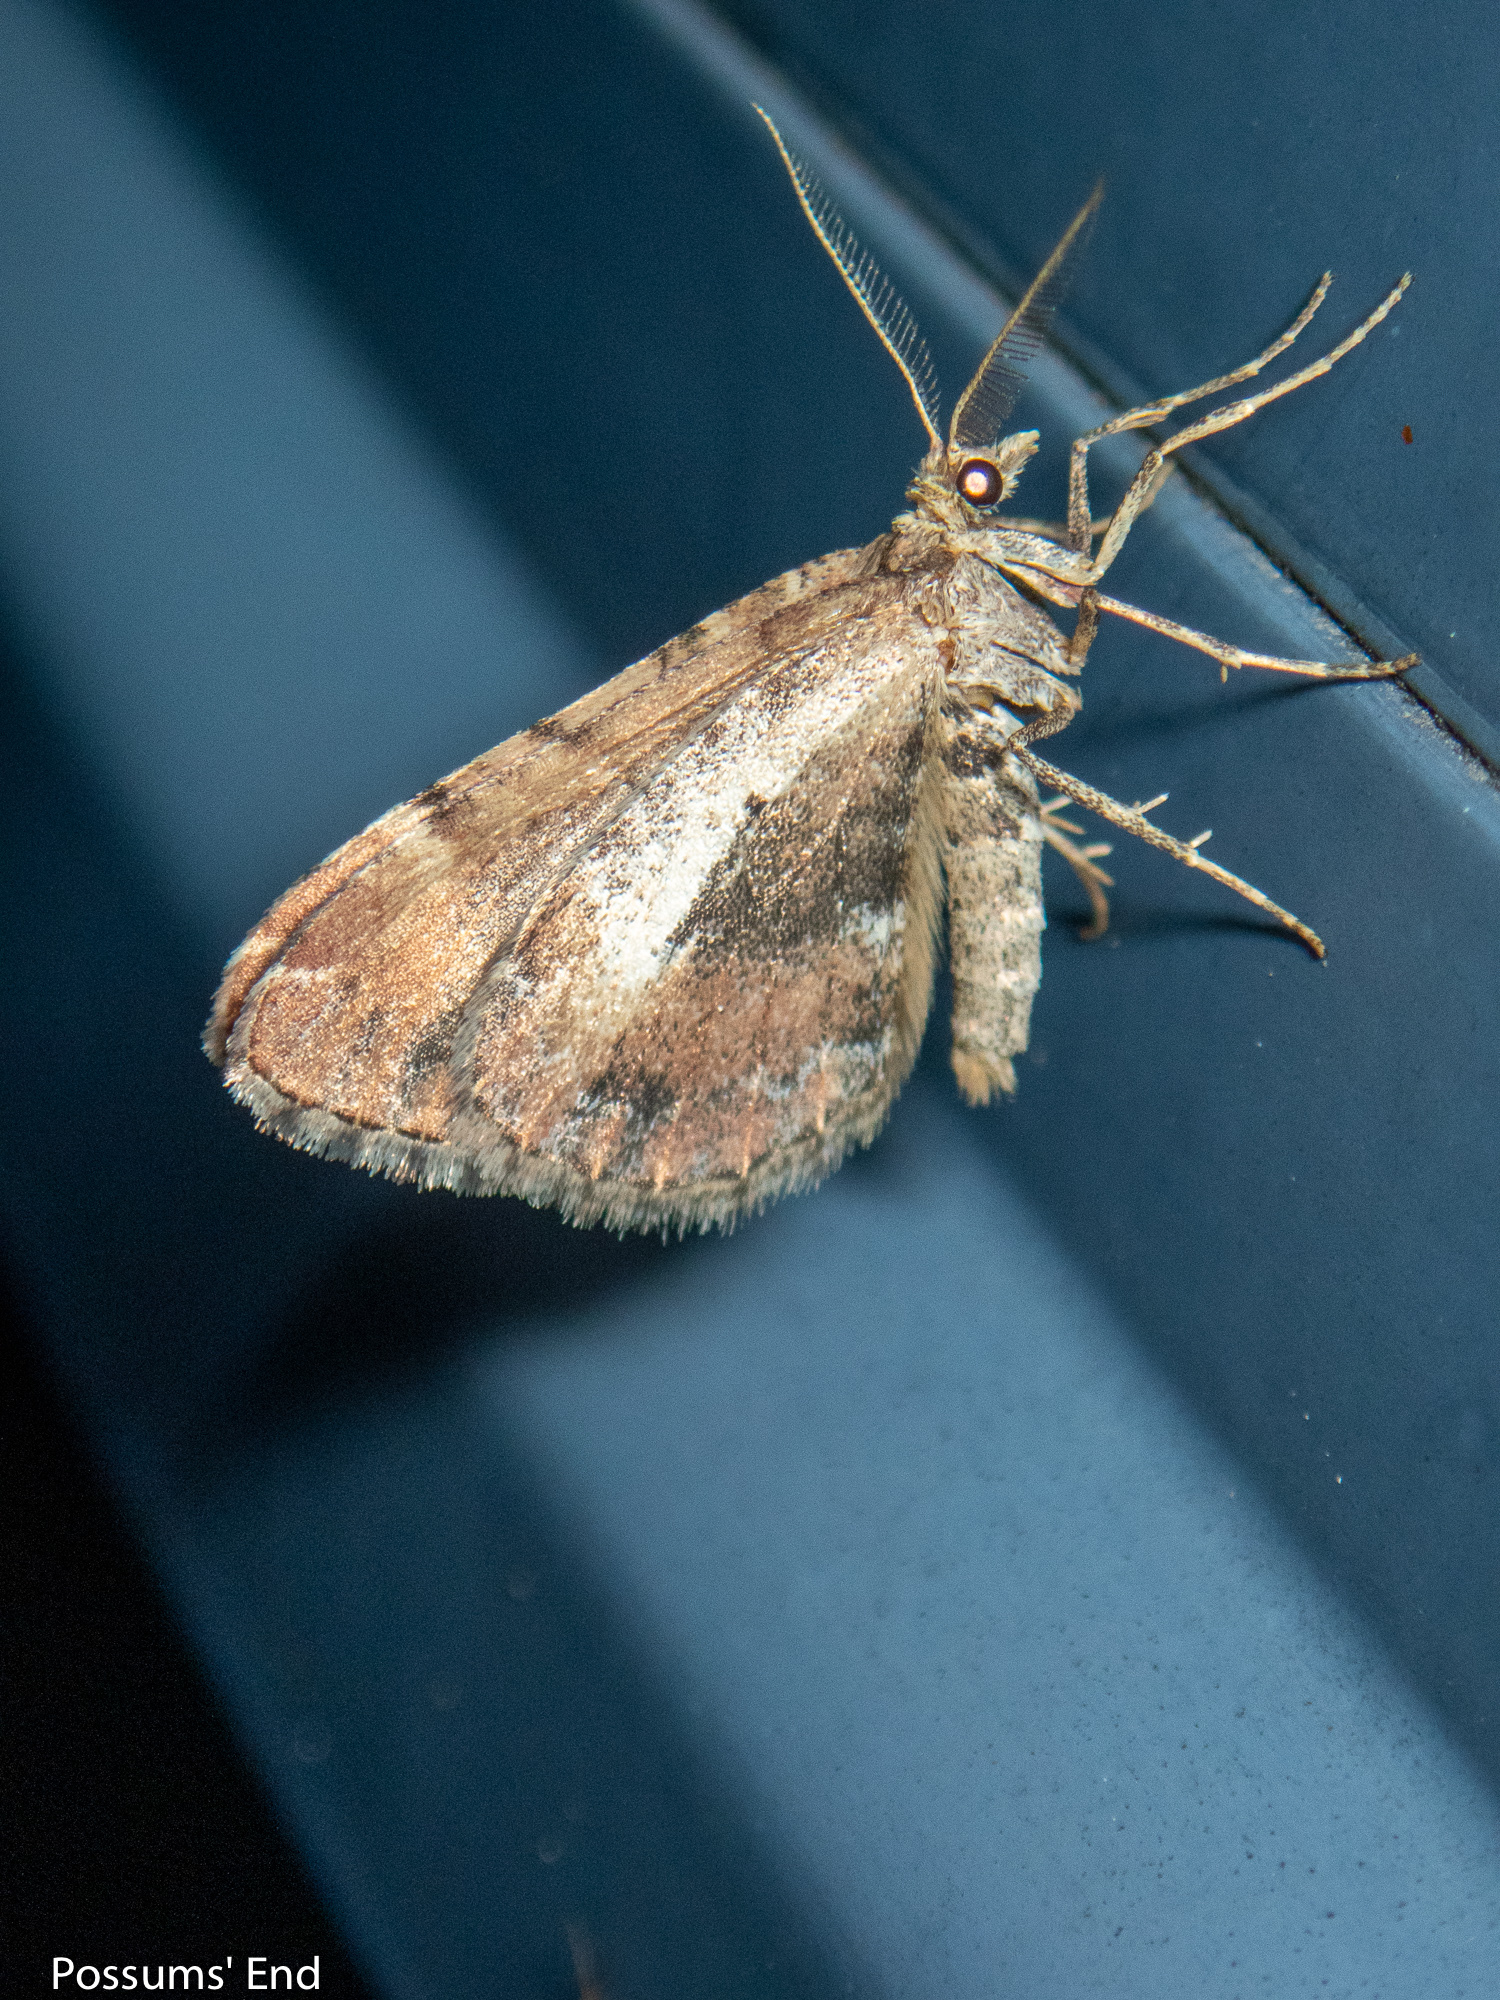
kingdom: Animalia
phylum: Arthropoda
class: Insecta
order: Lepidoptera
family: Geometridae
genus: Asaphodes
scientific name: Asaphodes aegrota
